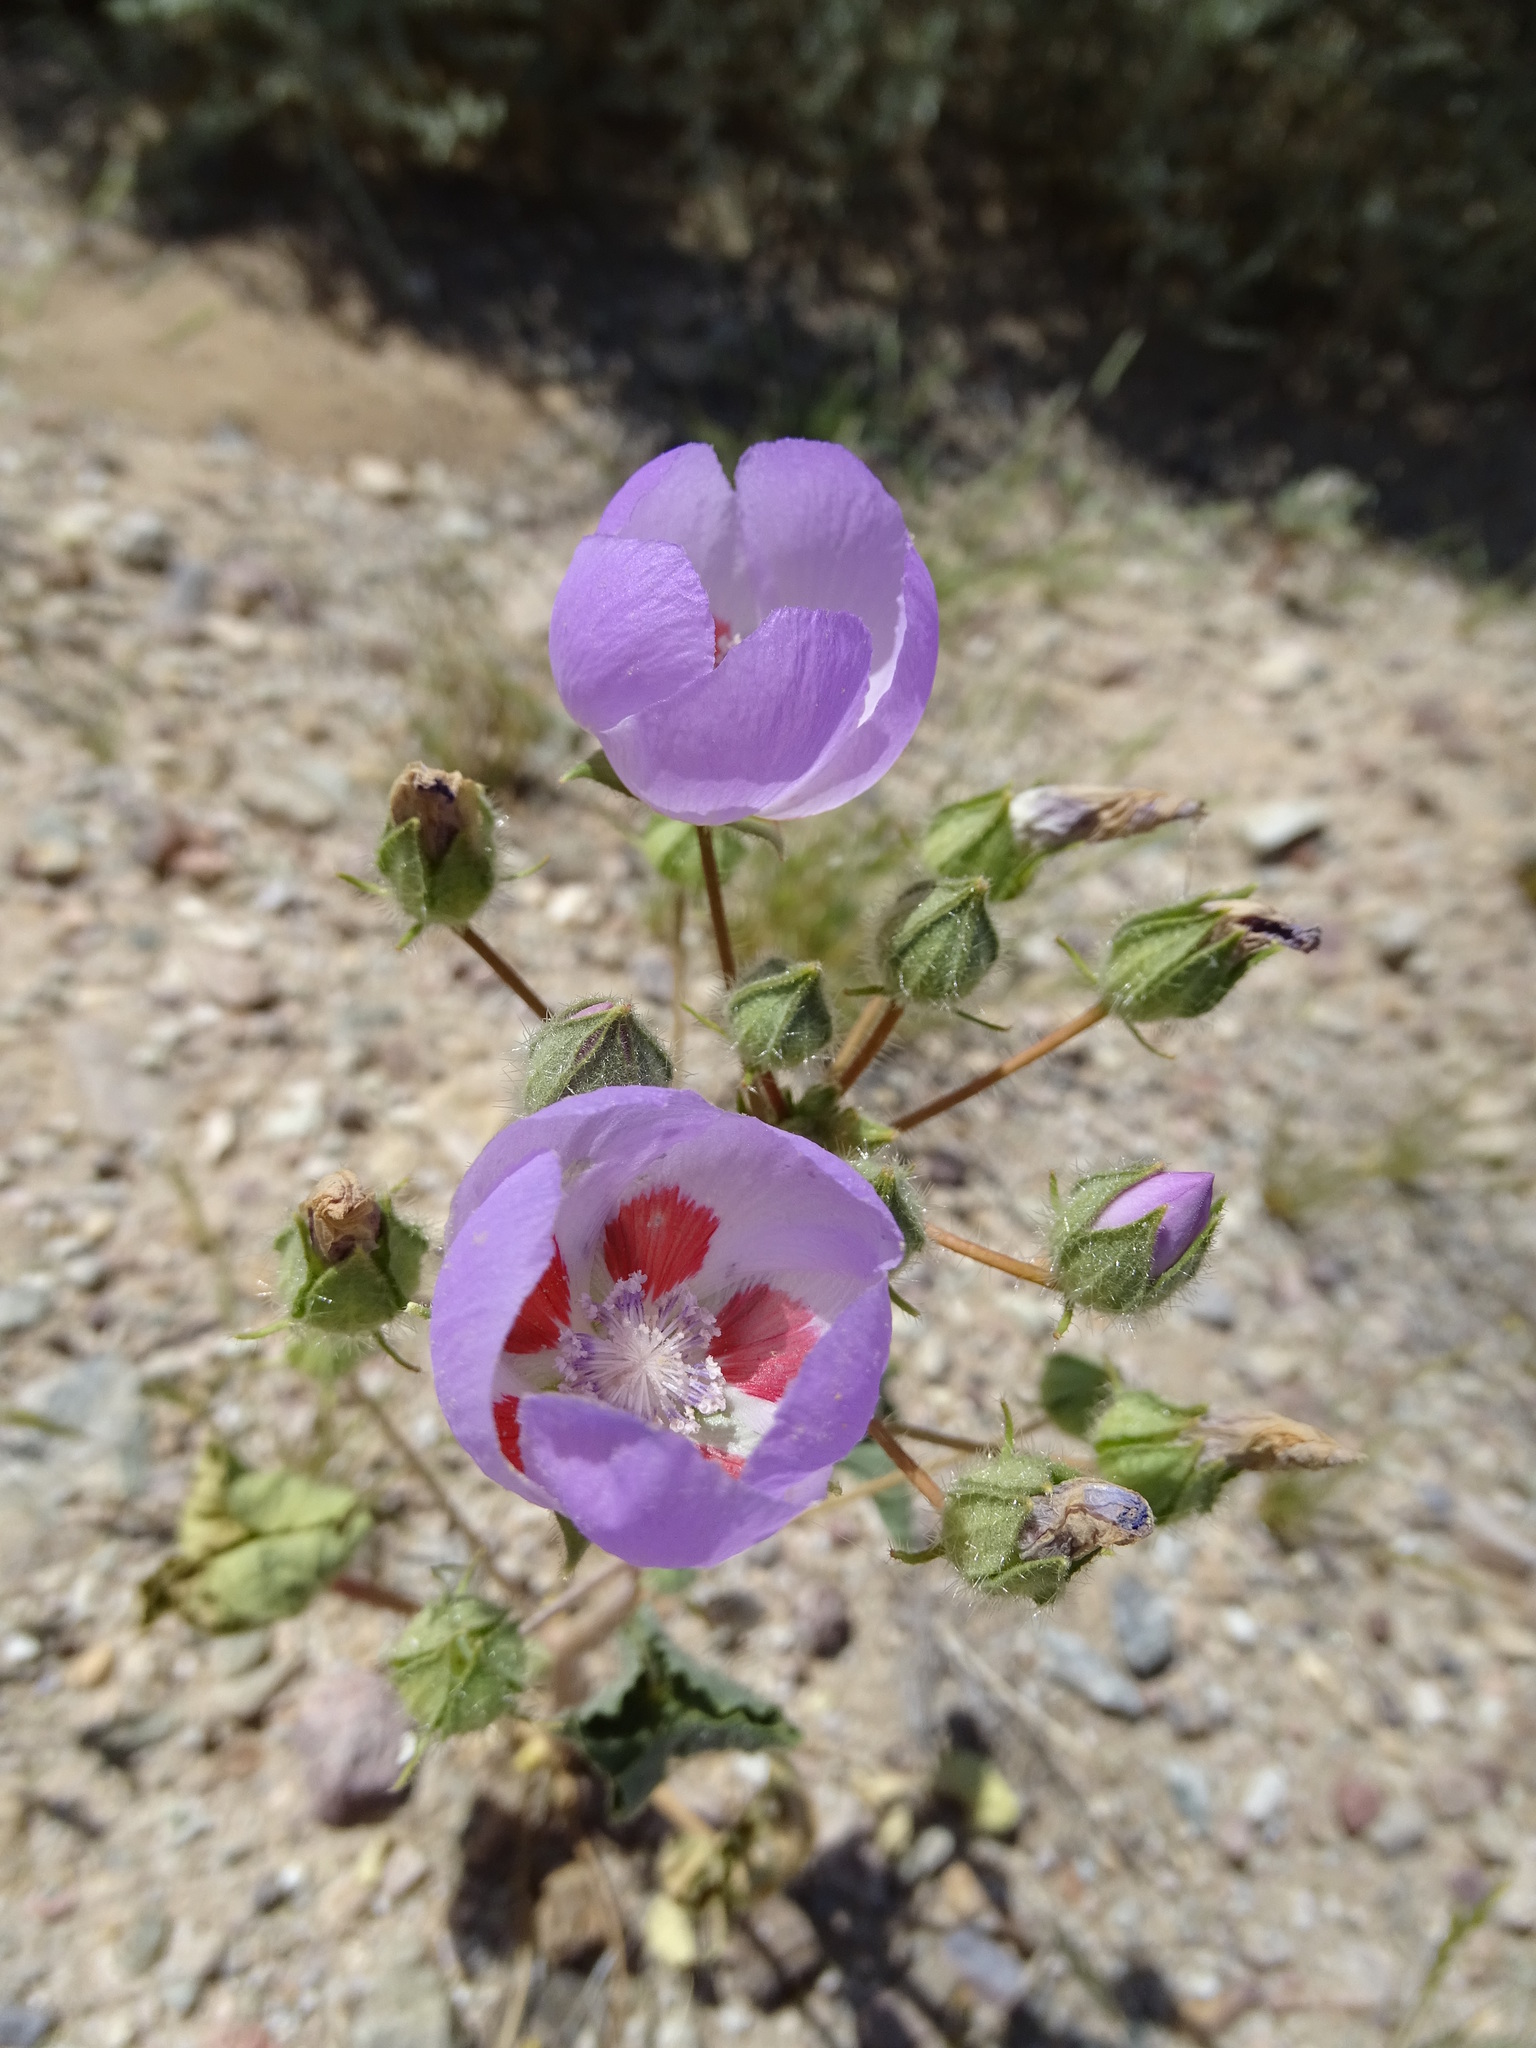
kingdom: Plantae
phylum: Tracheophyta
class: Magnoliopsida
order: Malvales
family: Malvaceae
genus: Eremalche
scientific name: Eremalche rotundifolia
